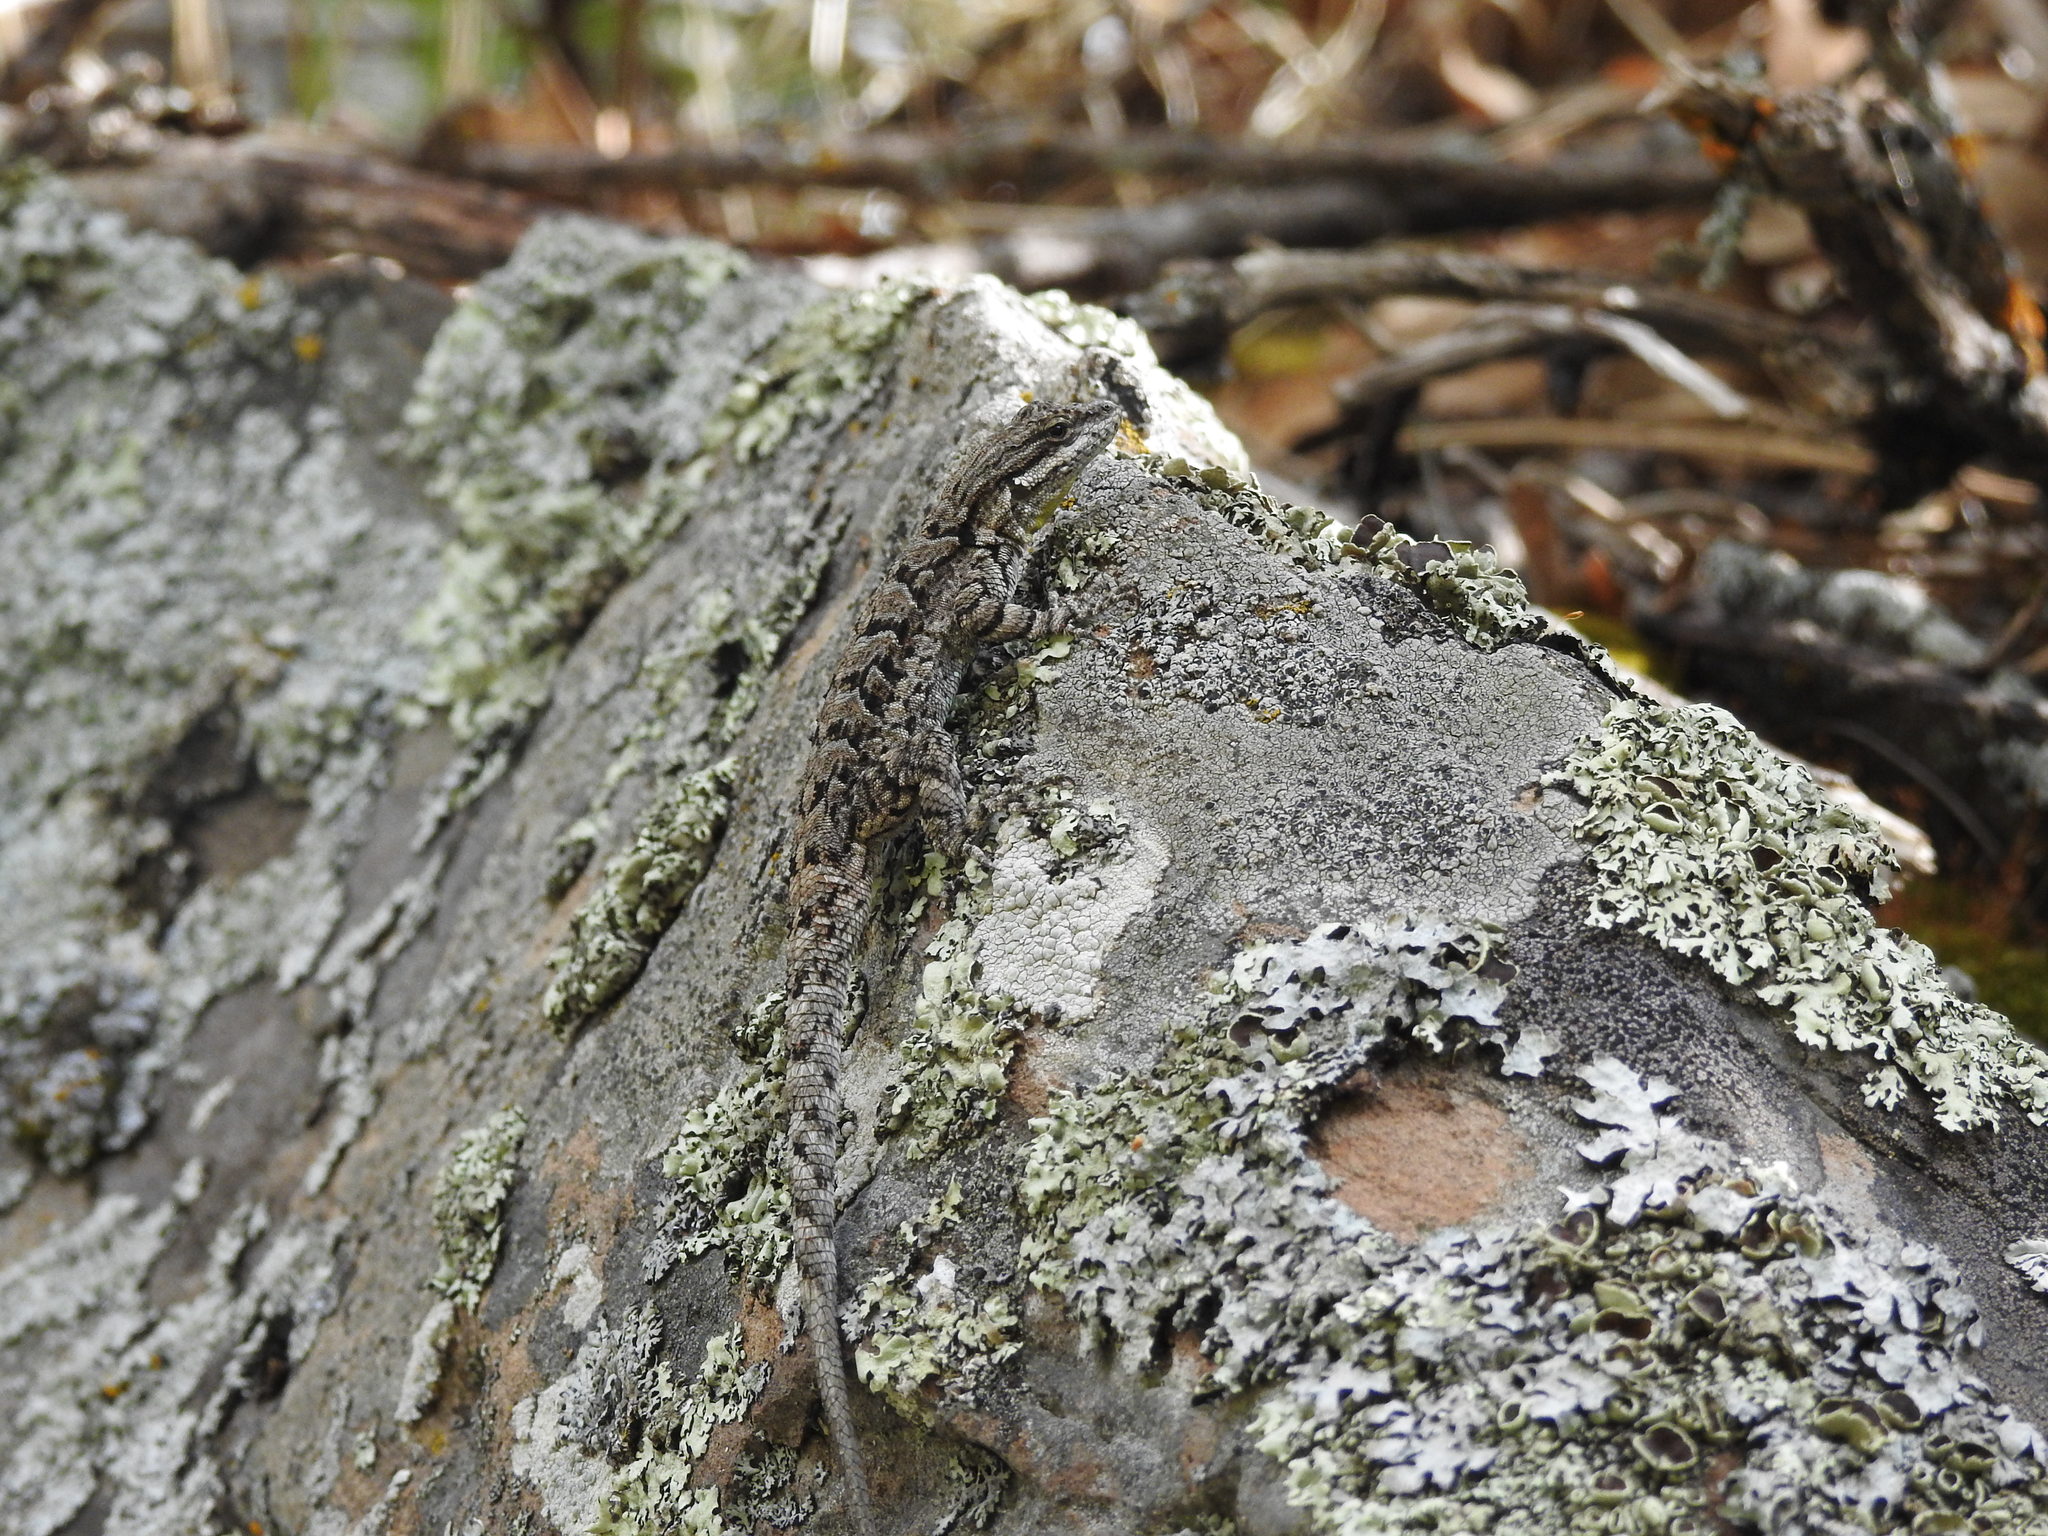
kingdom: Animalia
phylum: Chordata
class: Squamata
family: Phrynosomatidae
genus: Urosaurus
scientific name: Urosaurus ornatus
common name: Ornate tree lizard
